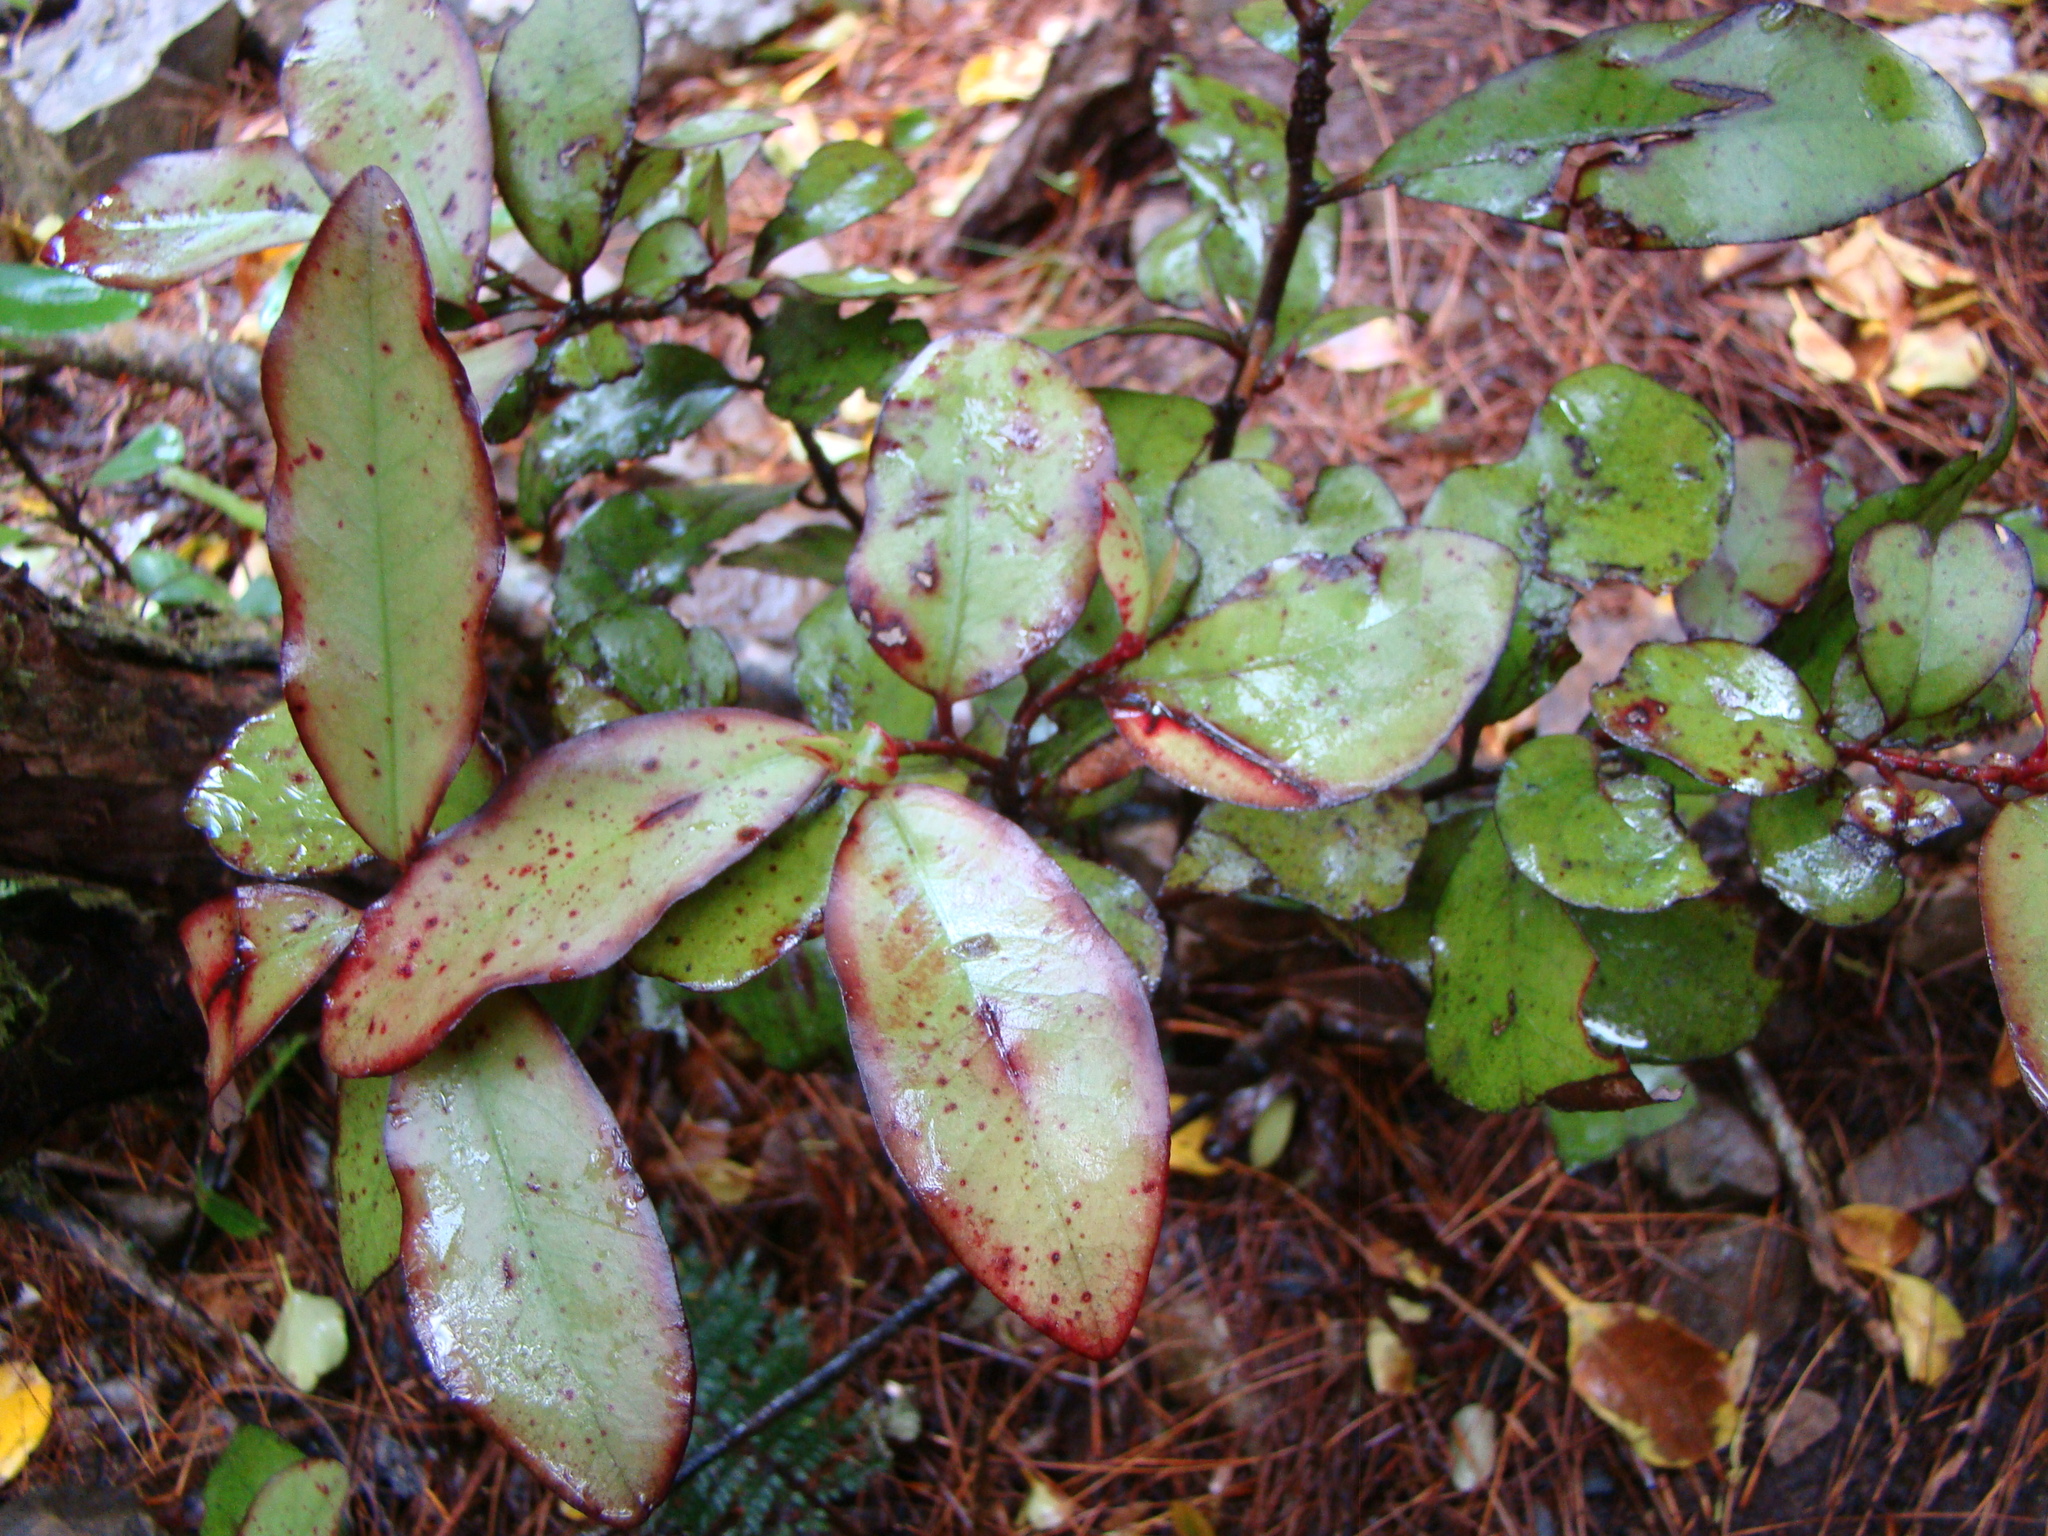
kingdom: Plantae
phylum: Tracheophyta
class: Magnoliopsida
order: Canellales
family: Winteraceae
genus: Pseudowintera
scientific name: Pseudowintera colorata
